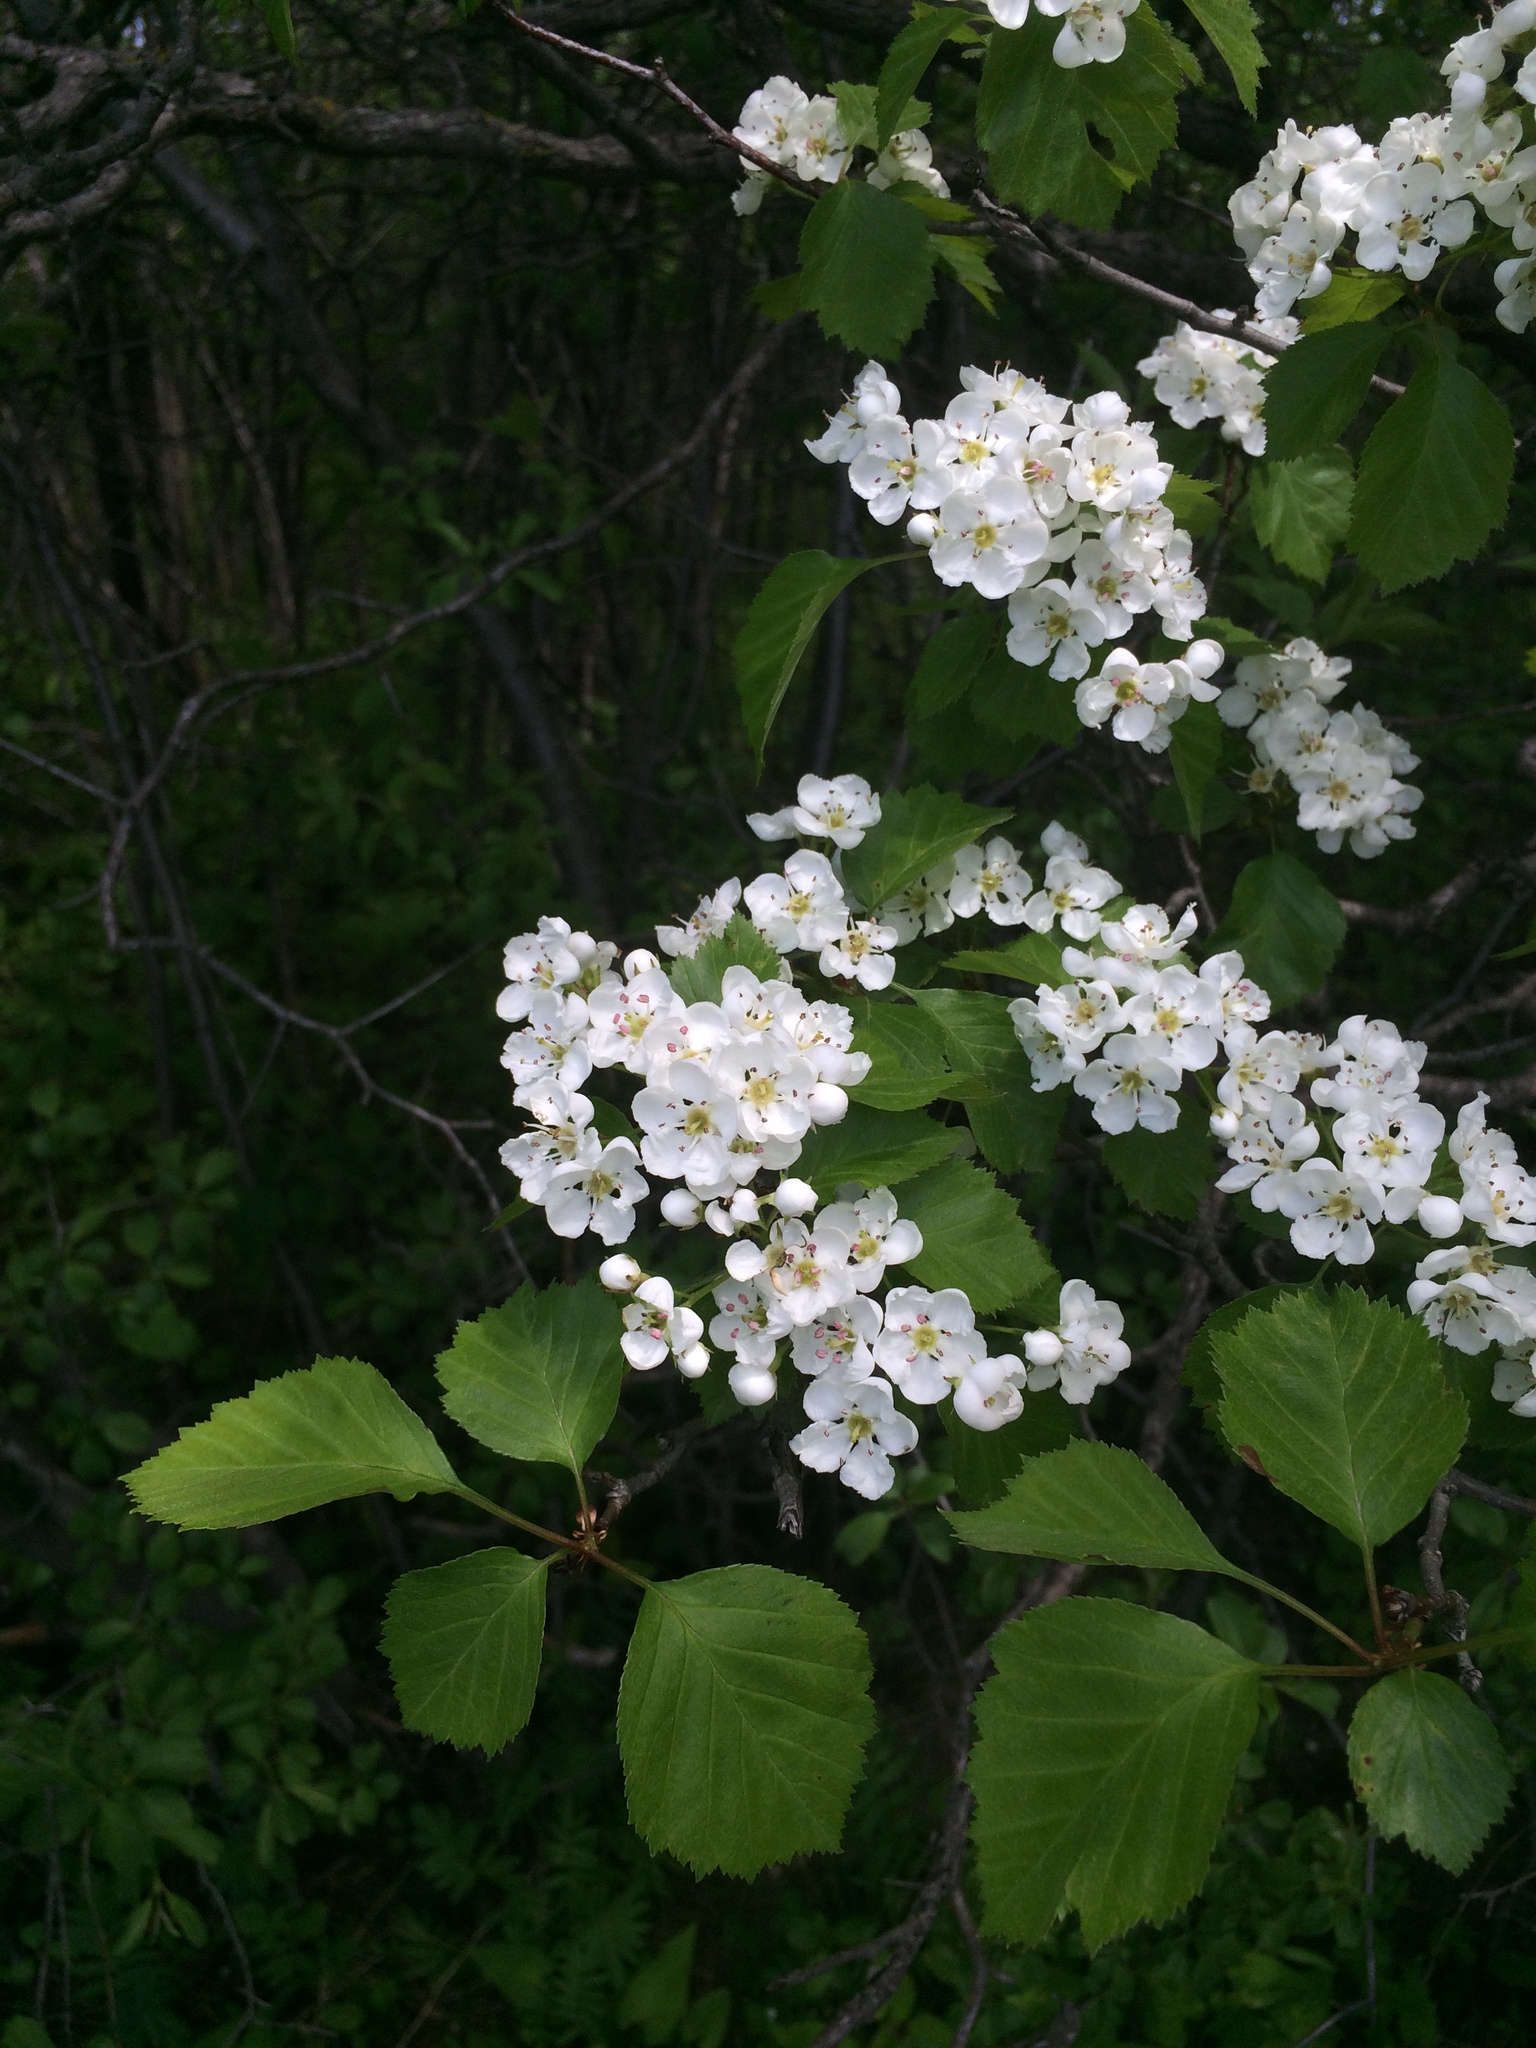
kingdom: Plantae
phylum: Tracheophyta
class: Magnoliopsida
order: Rosales
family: Rosaceae
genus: Crataegus
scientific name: Crataegus scabrida
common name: Rough hawthorn
